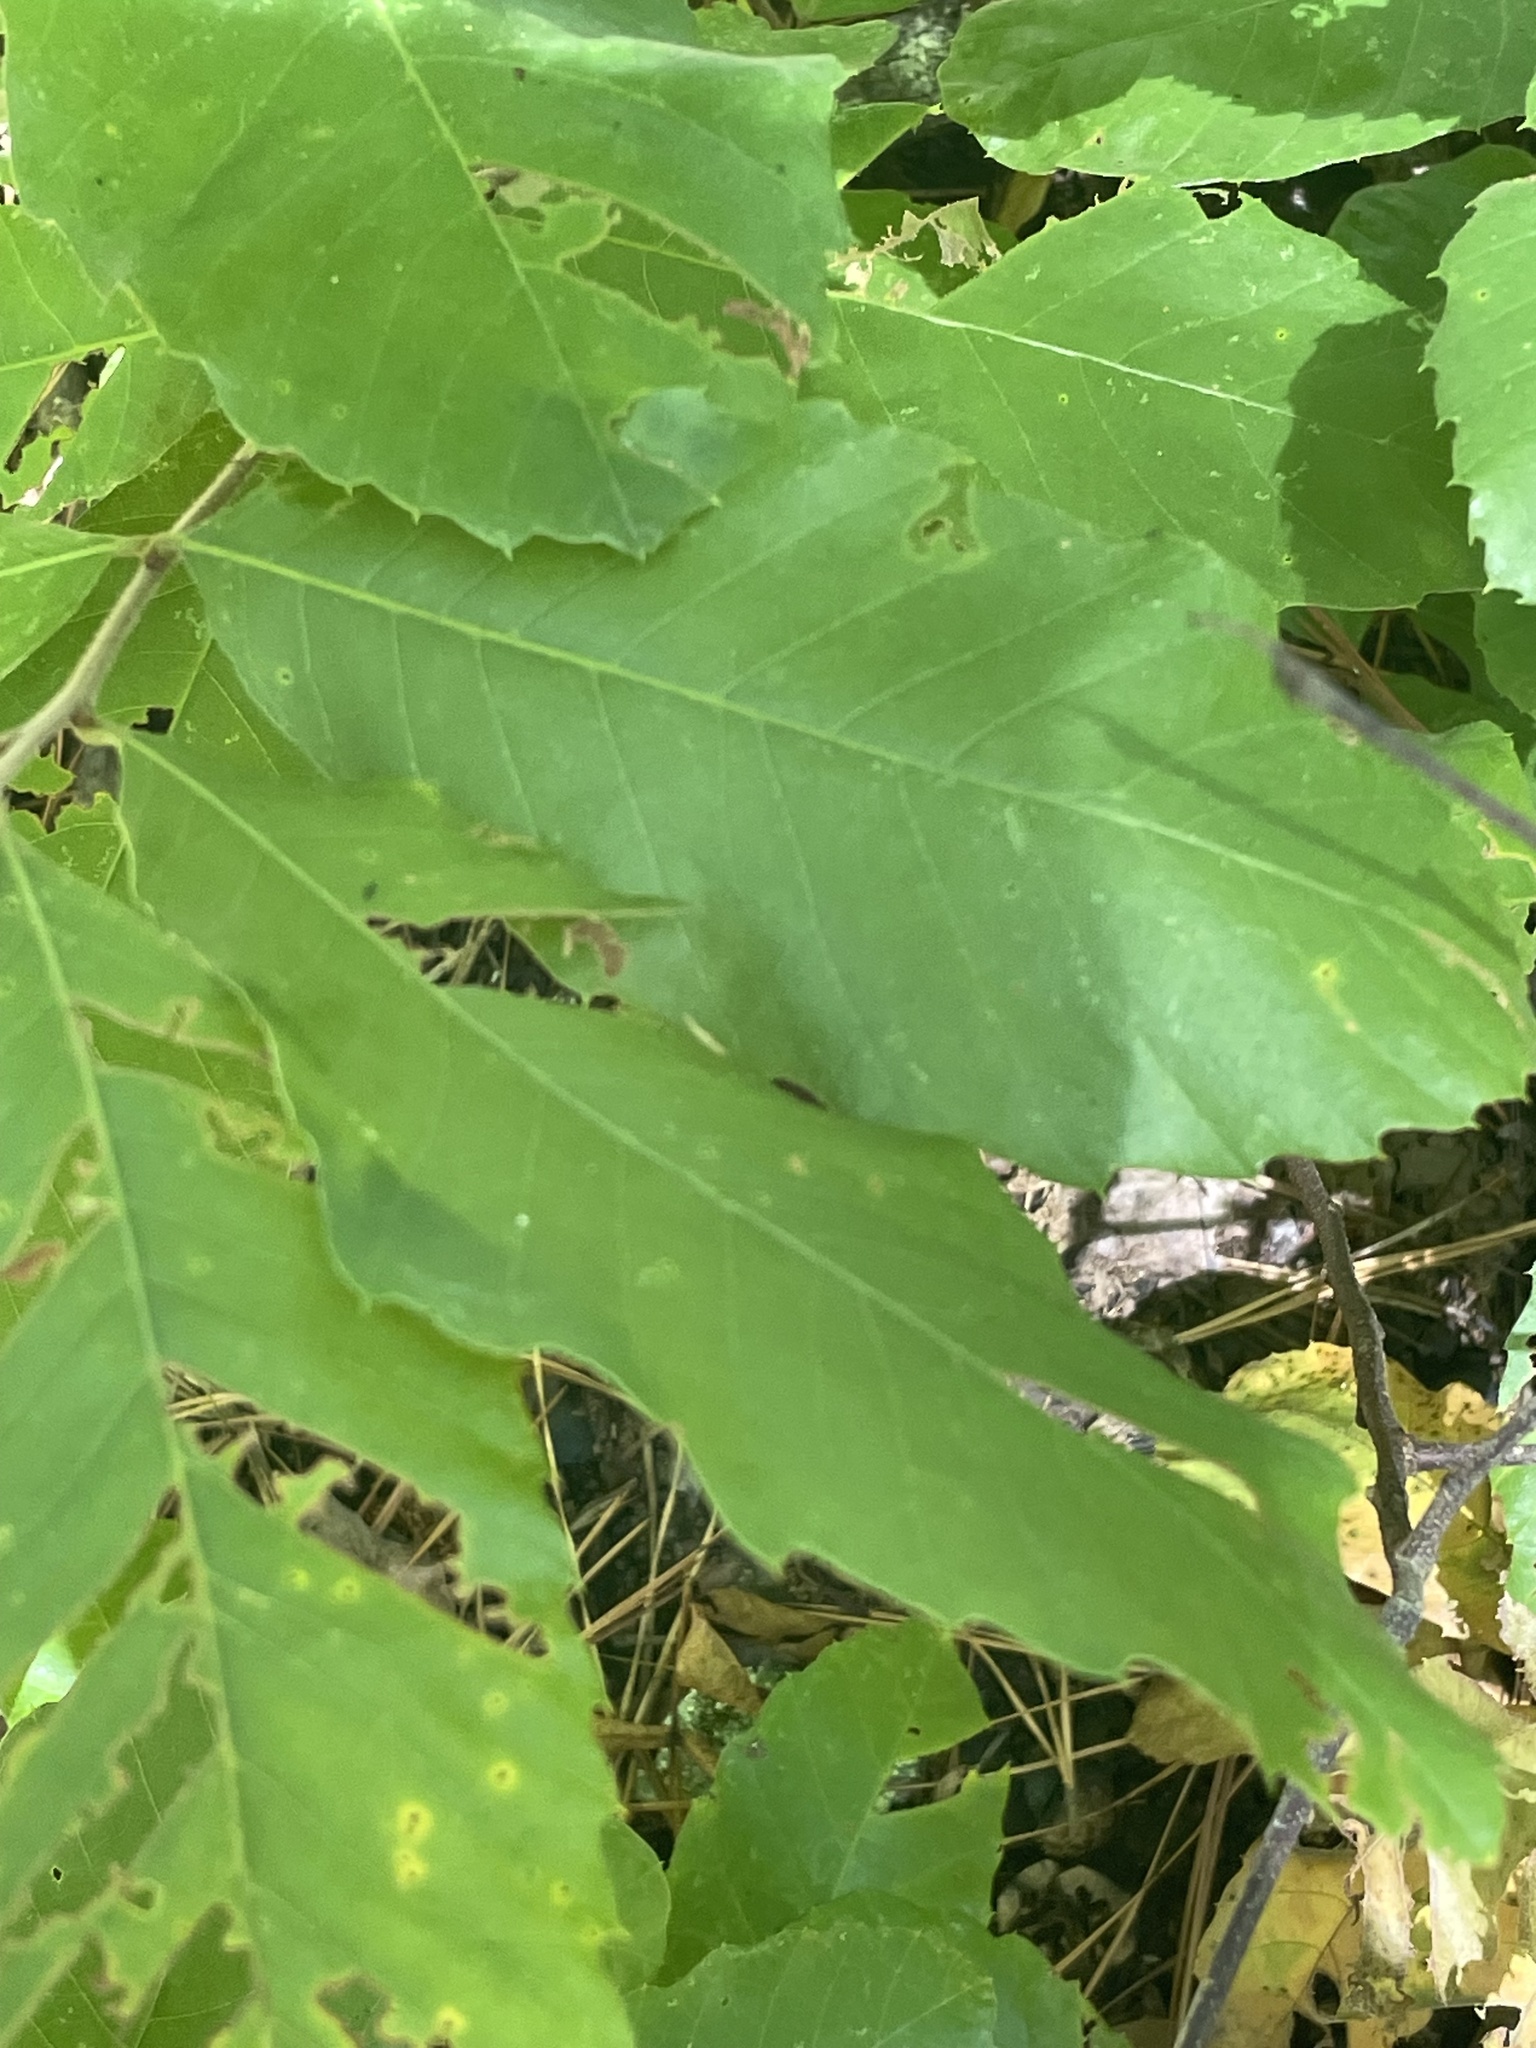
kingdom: Plantae
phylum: Tracheophyta
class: Magnoliopsida
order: Fagales
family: Fagaceae
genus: Castanea
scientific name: Castanea pumila
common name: Chinkapin
